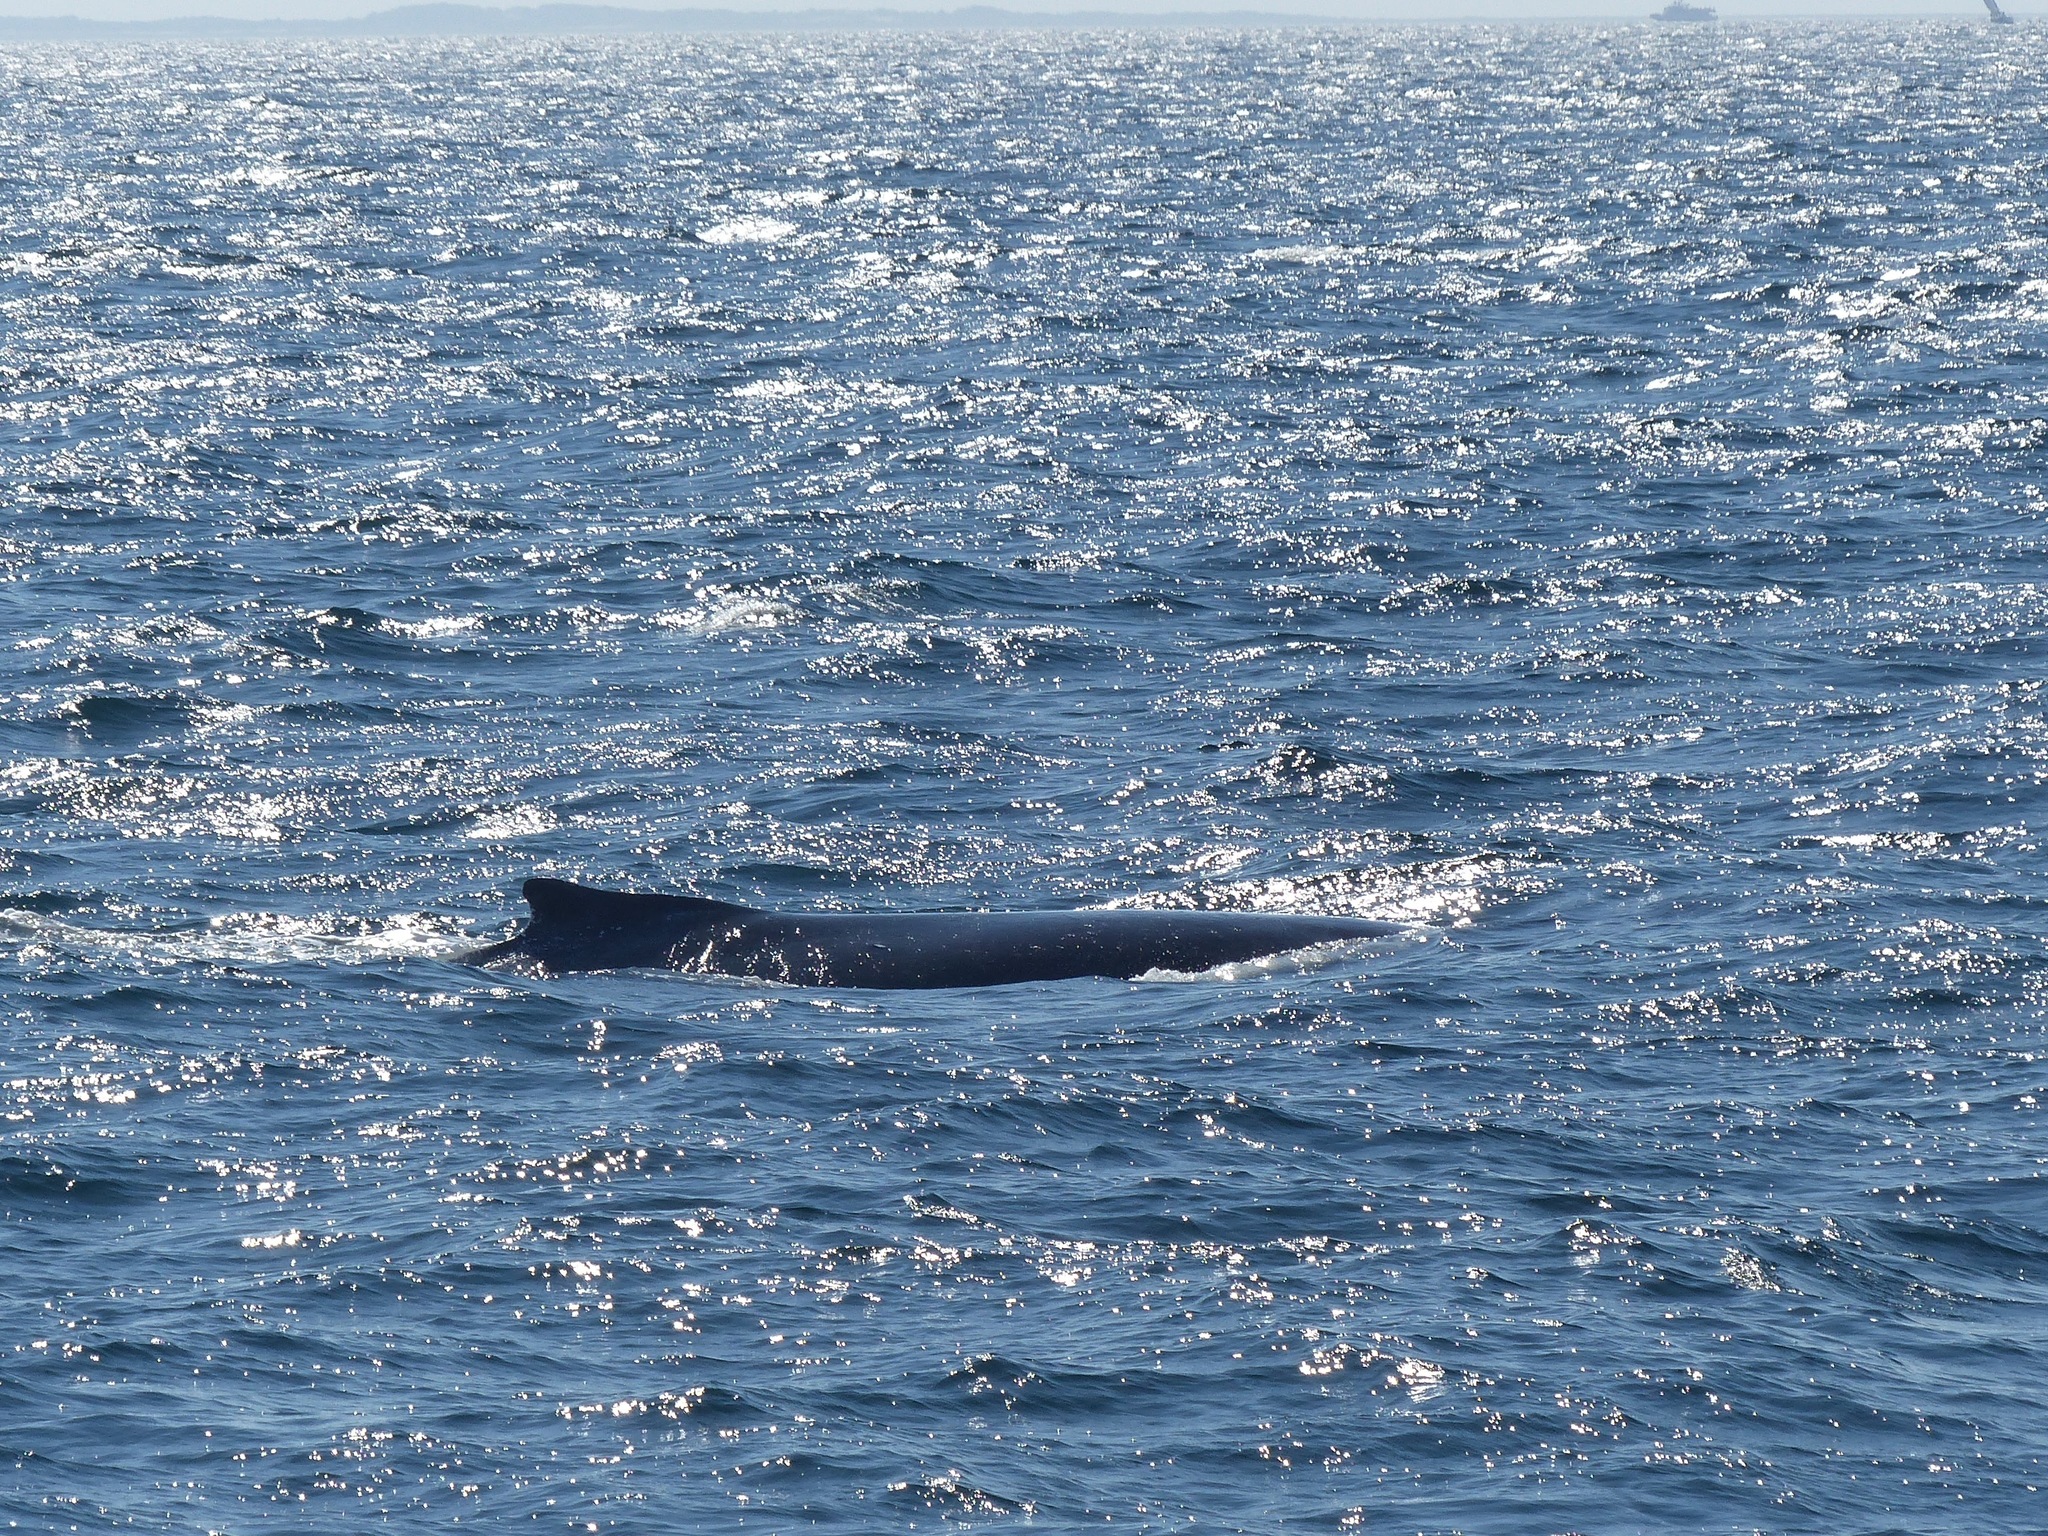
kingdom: Animalia
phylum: Chordata
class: Mammalia
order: Cetacea
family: Balaenopteridae
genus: Megaptera
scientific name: Megaptera novaeangliae
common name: Humpback whale
